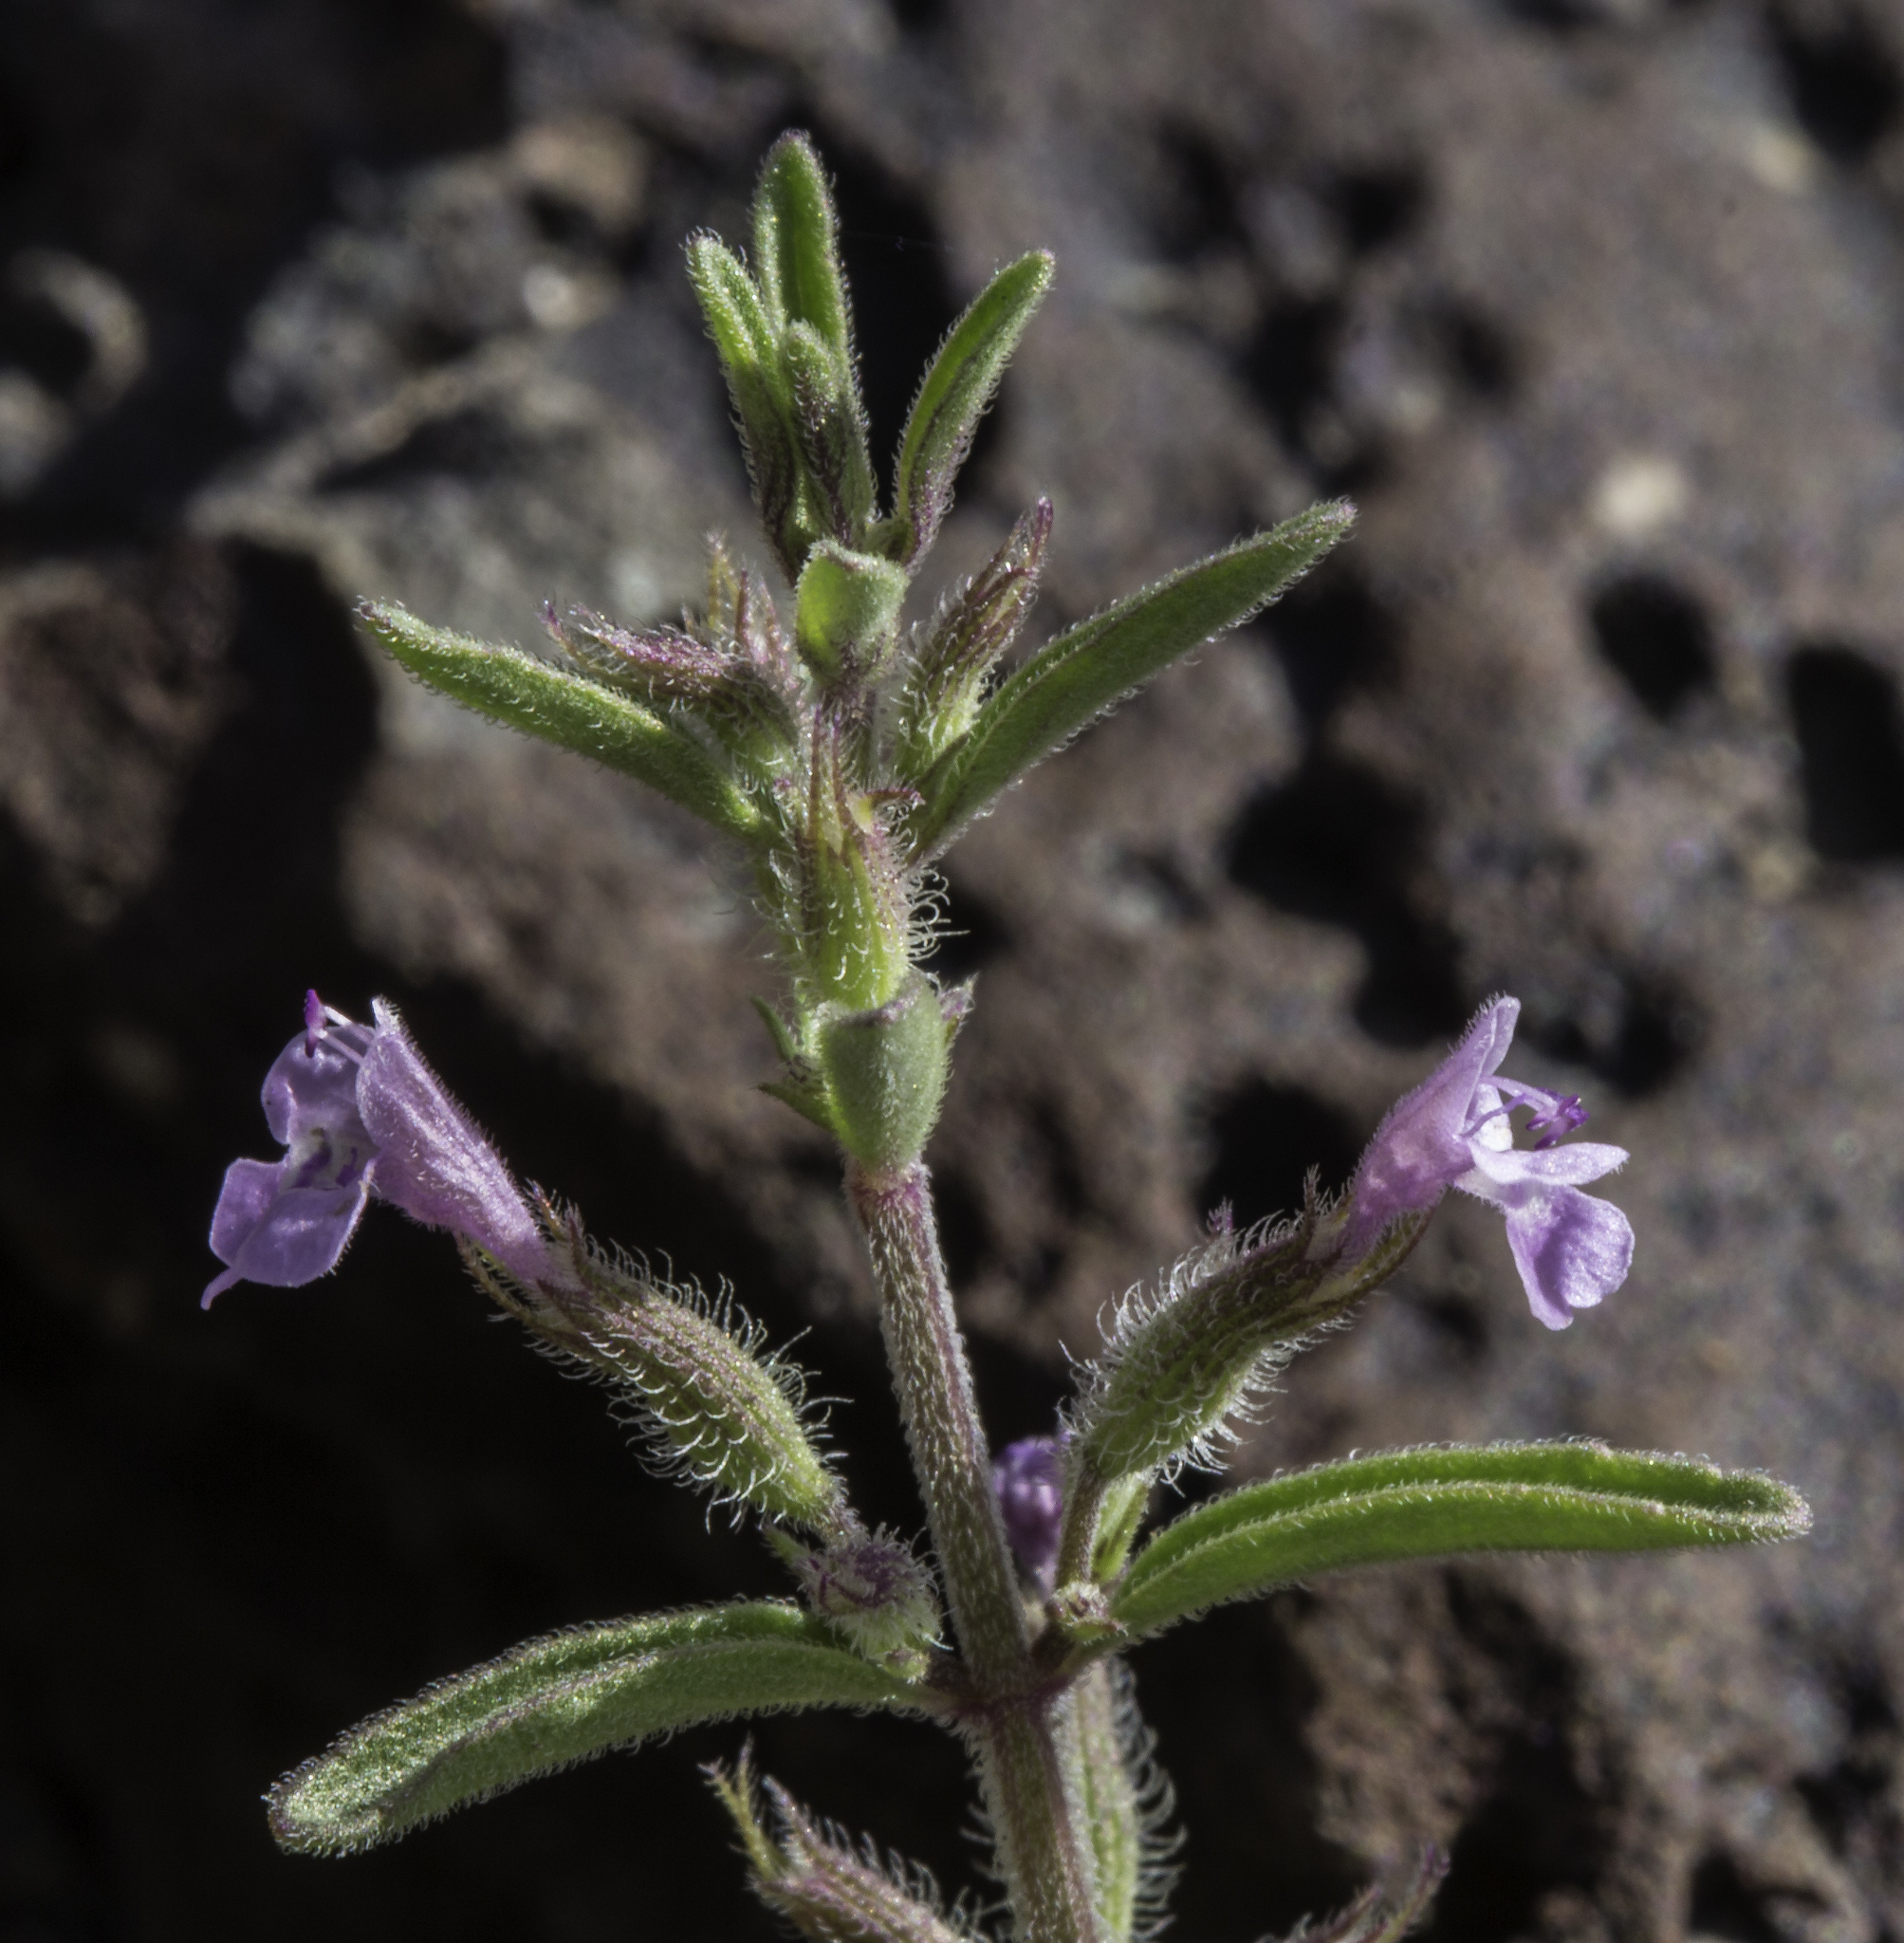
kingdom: Plantae
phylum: Tracheophyta
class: Magnoliopsida
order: Lamiales
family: Lamiaceae
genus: Hedeoma
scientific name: Hedeoma drummondii
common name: New mexico pennyroyal
